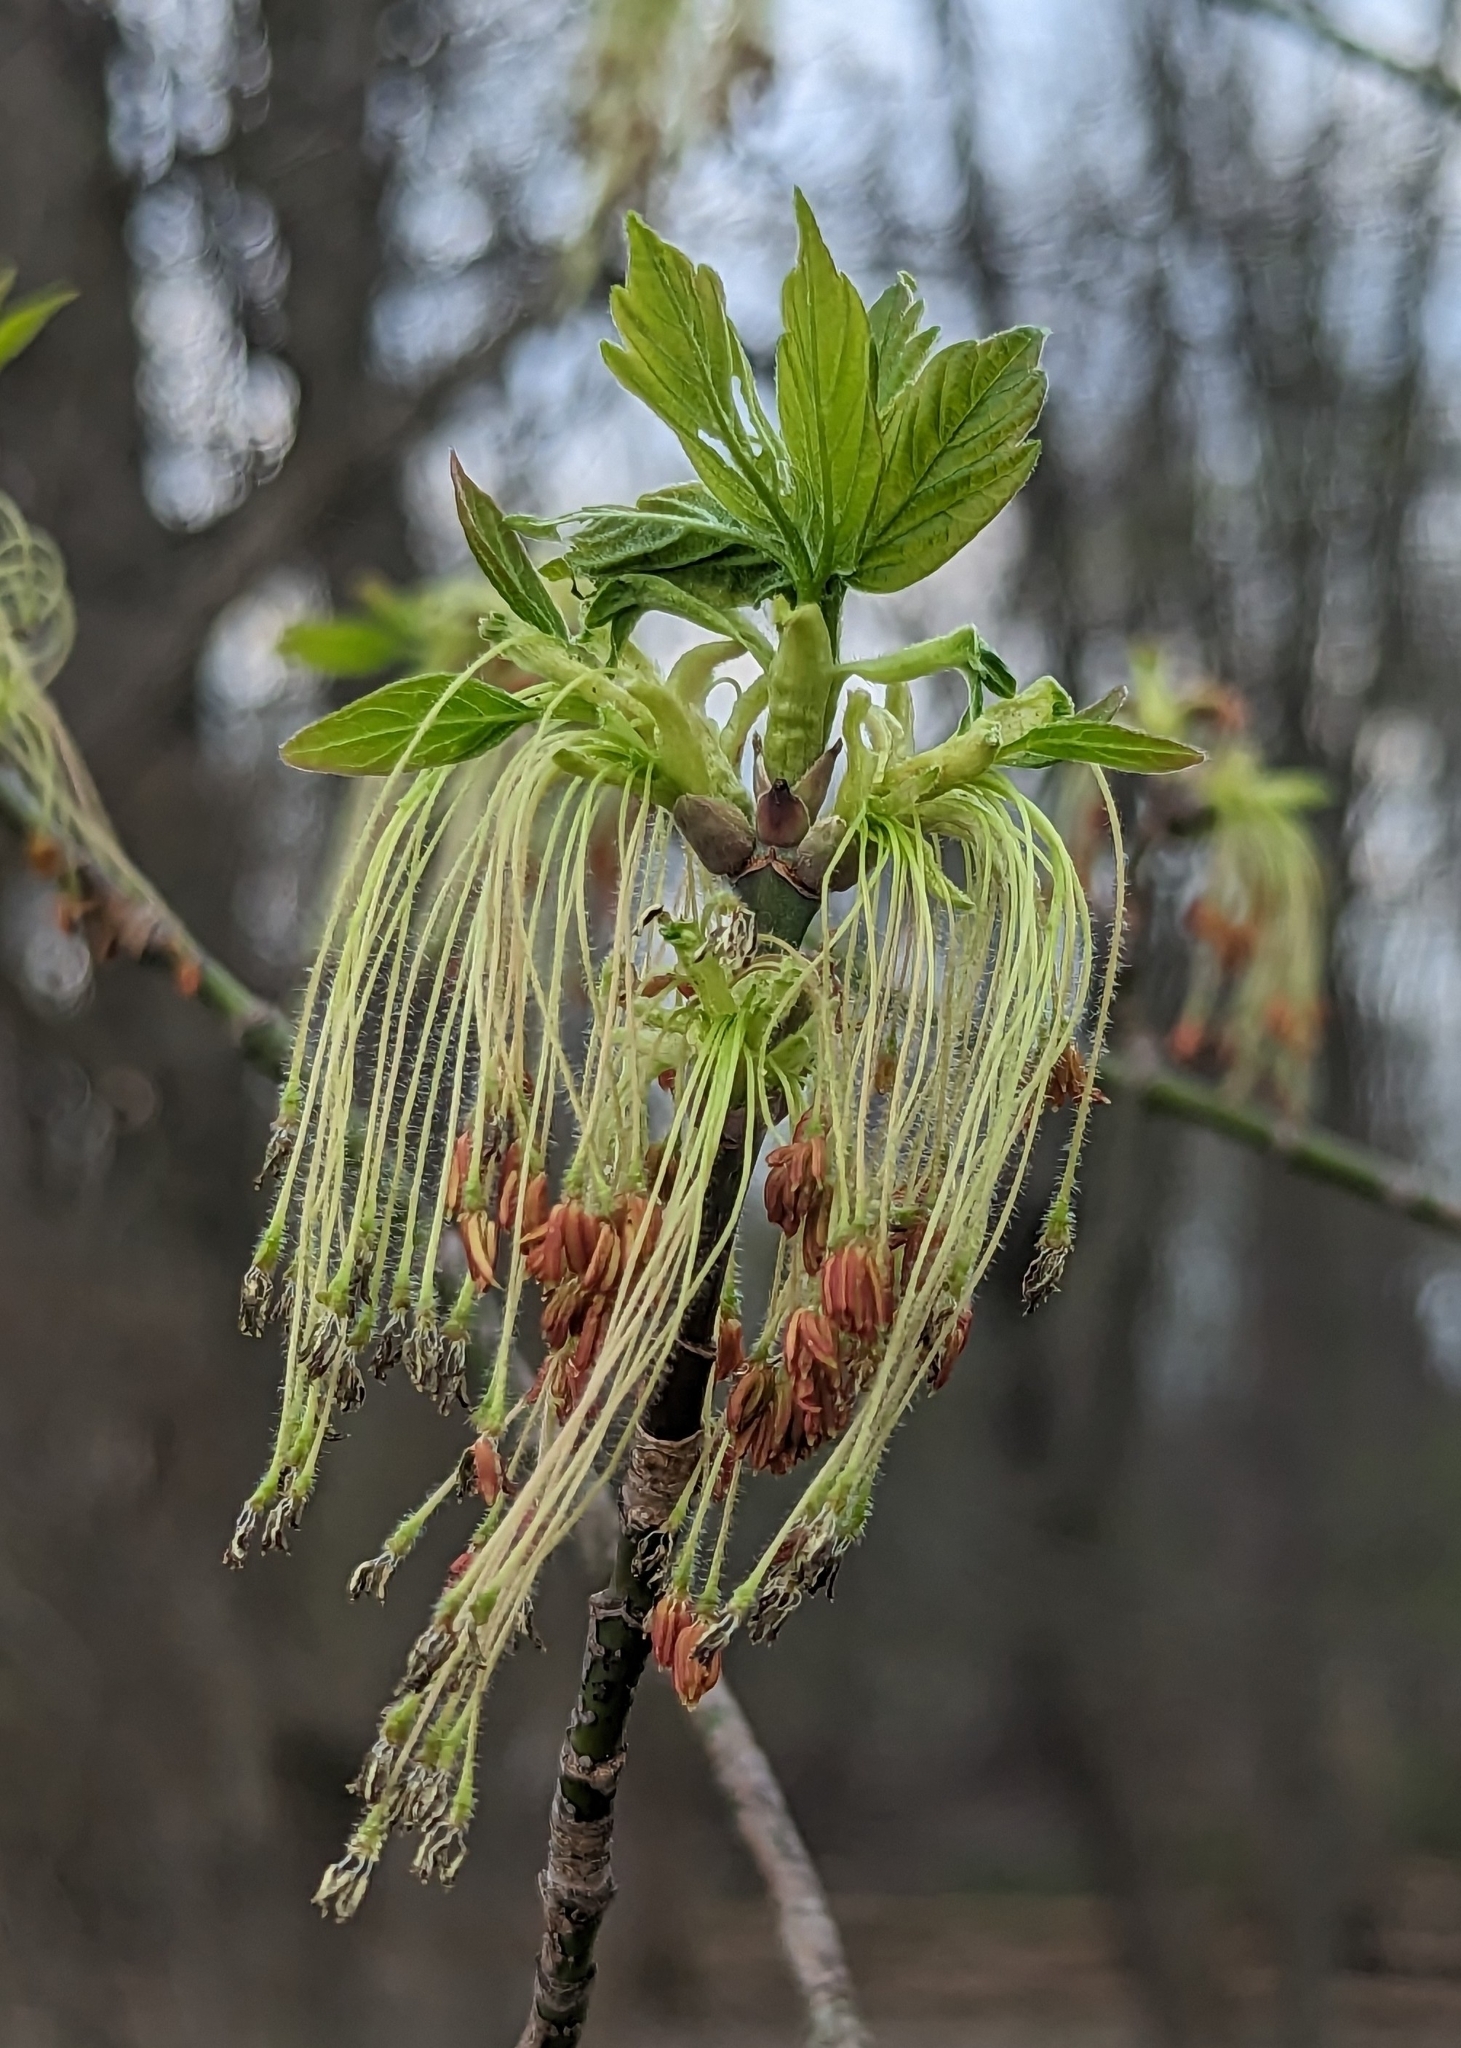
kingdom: Plantae
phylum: Tracheophyta
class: Magnoliopsida
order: Sapindales
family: Sapindaceae
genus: Acer
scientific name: Acer negundo
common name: Ashleaf maple
